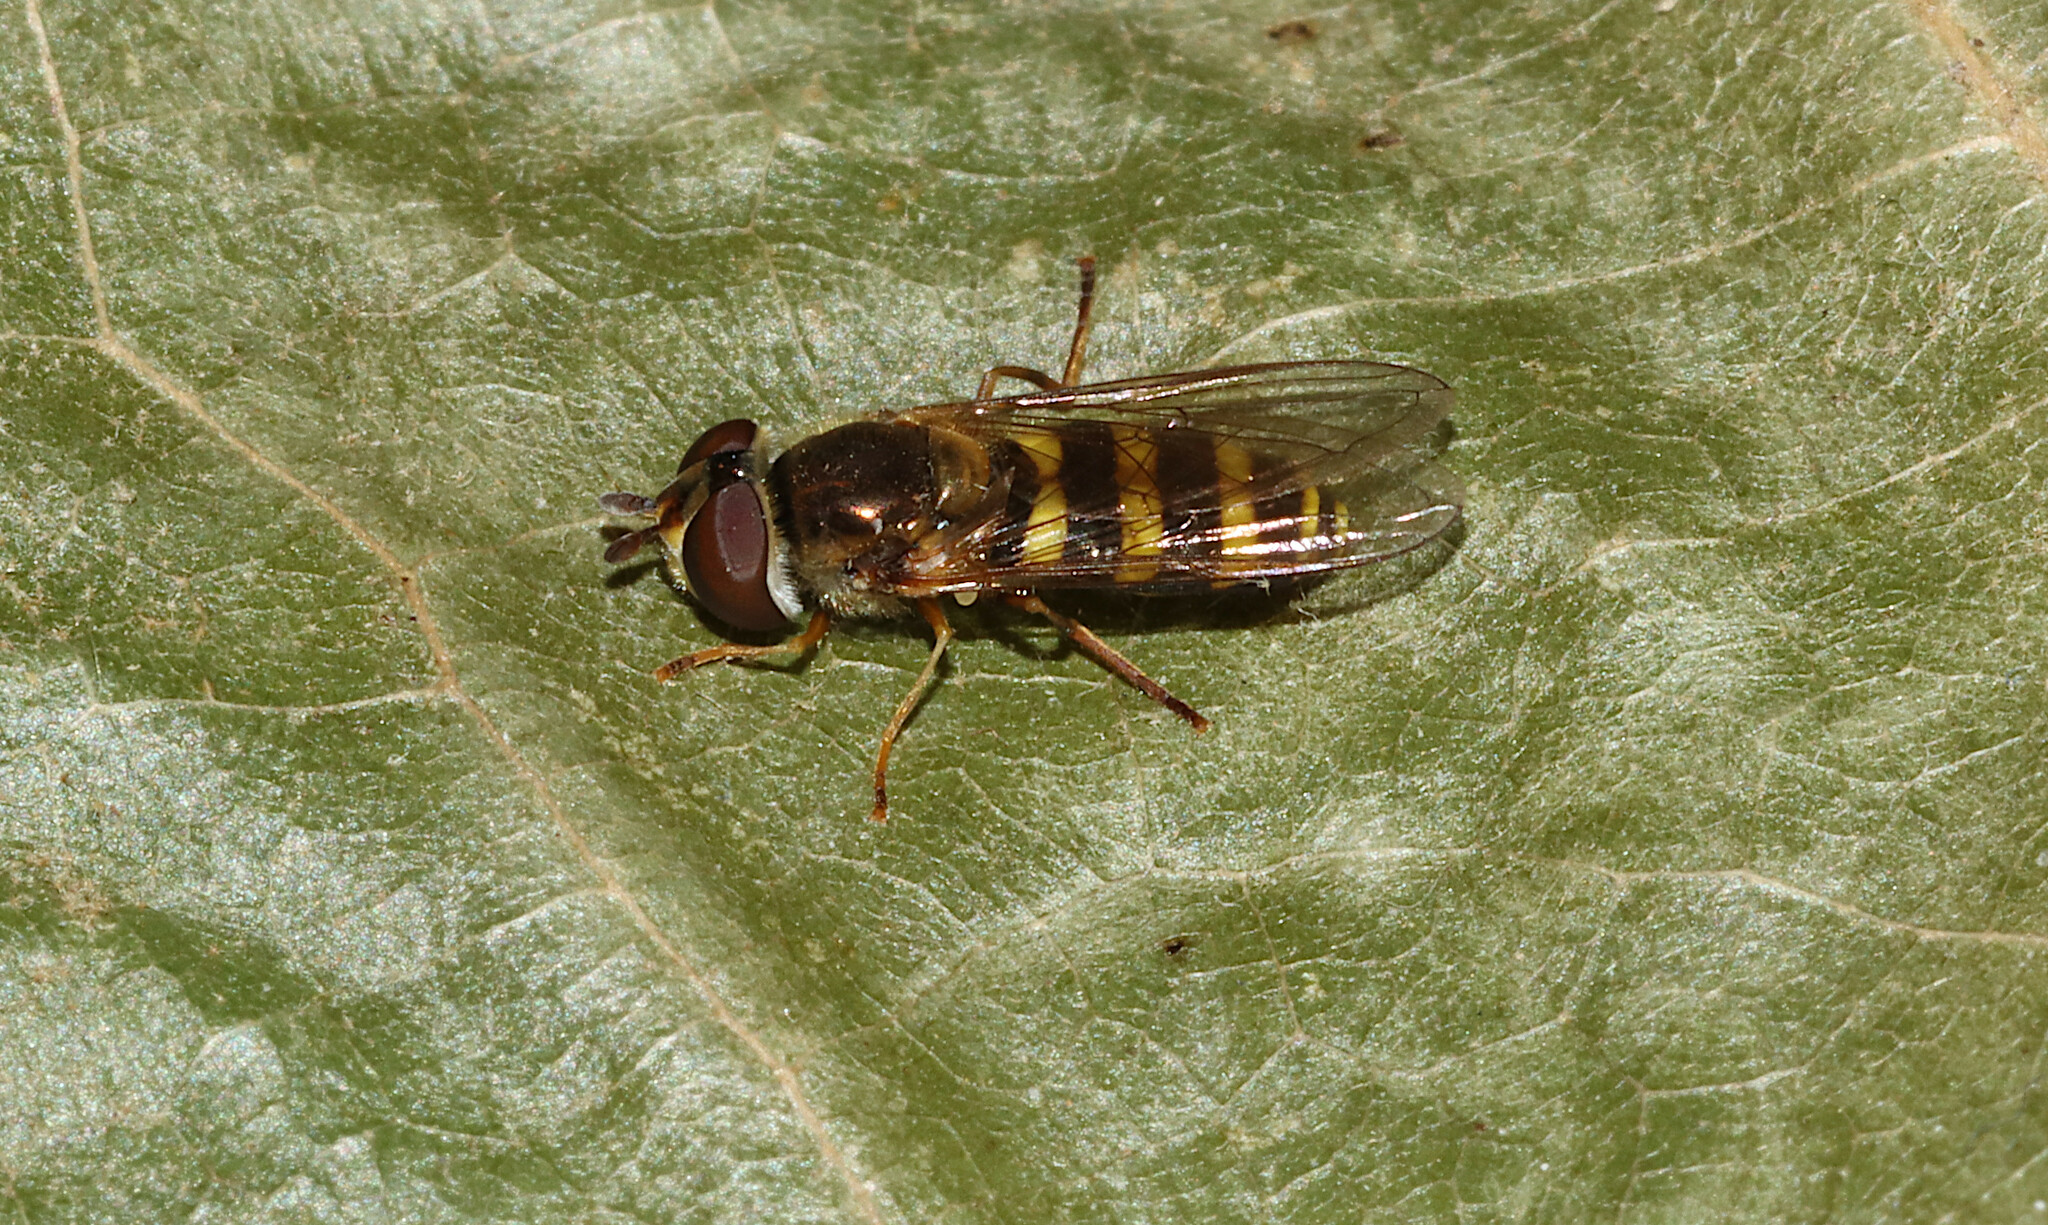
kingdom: Animalia
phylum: Arthropoda
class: Insecta
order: Diptera
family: Syrphidae
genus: Eupeodes
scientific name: Eupeodes
